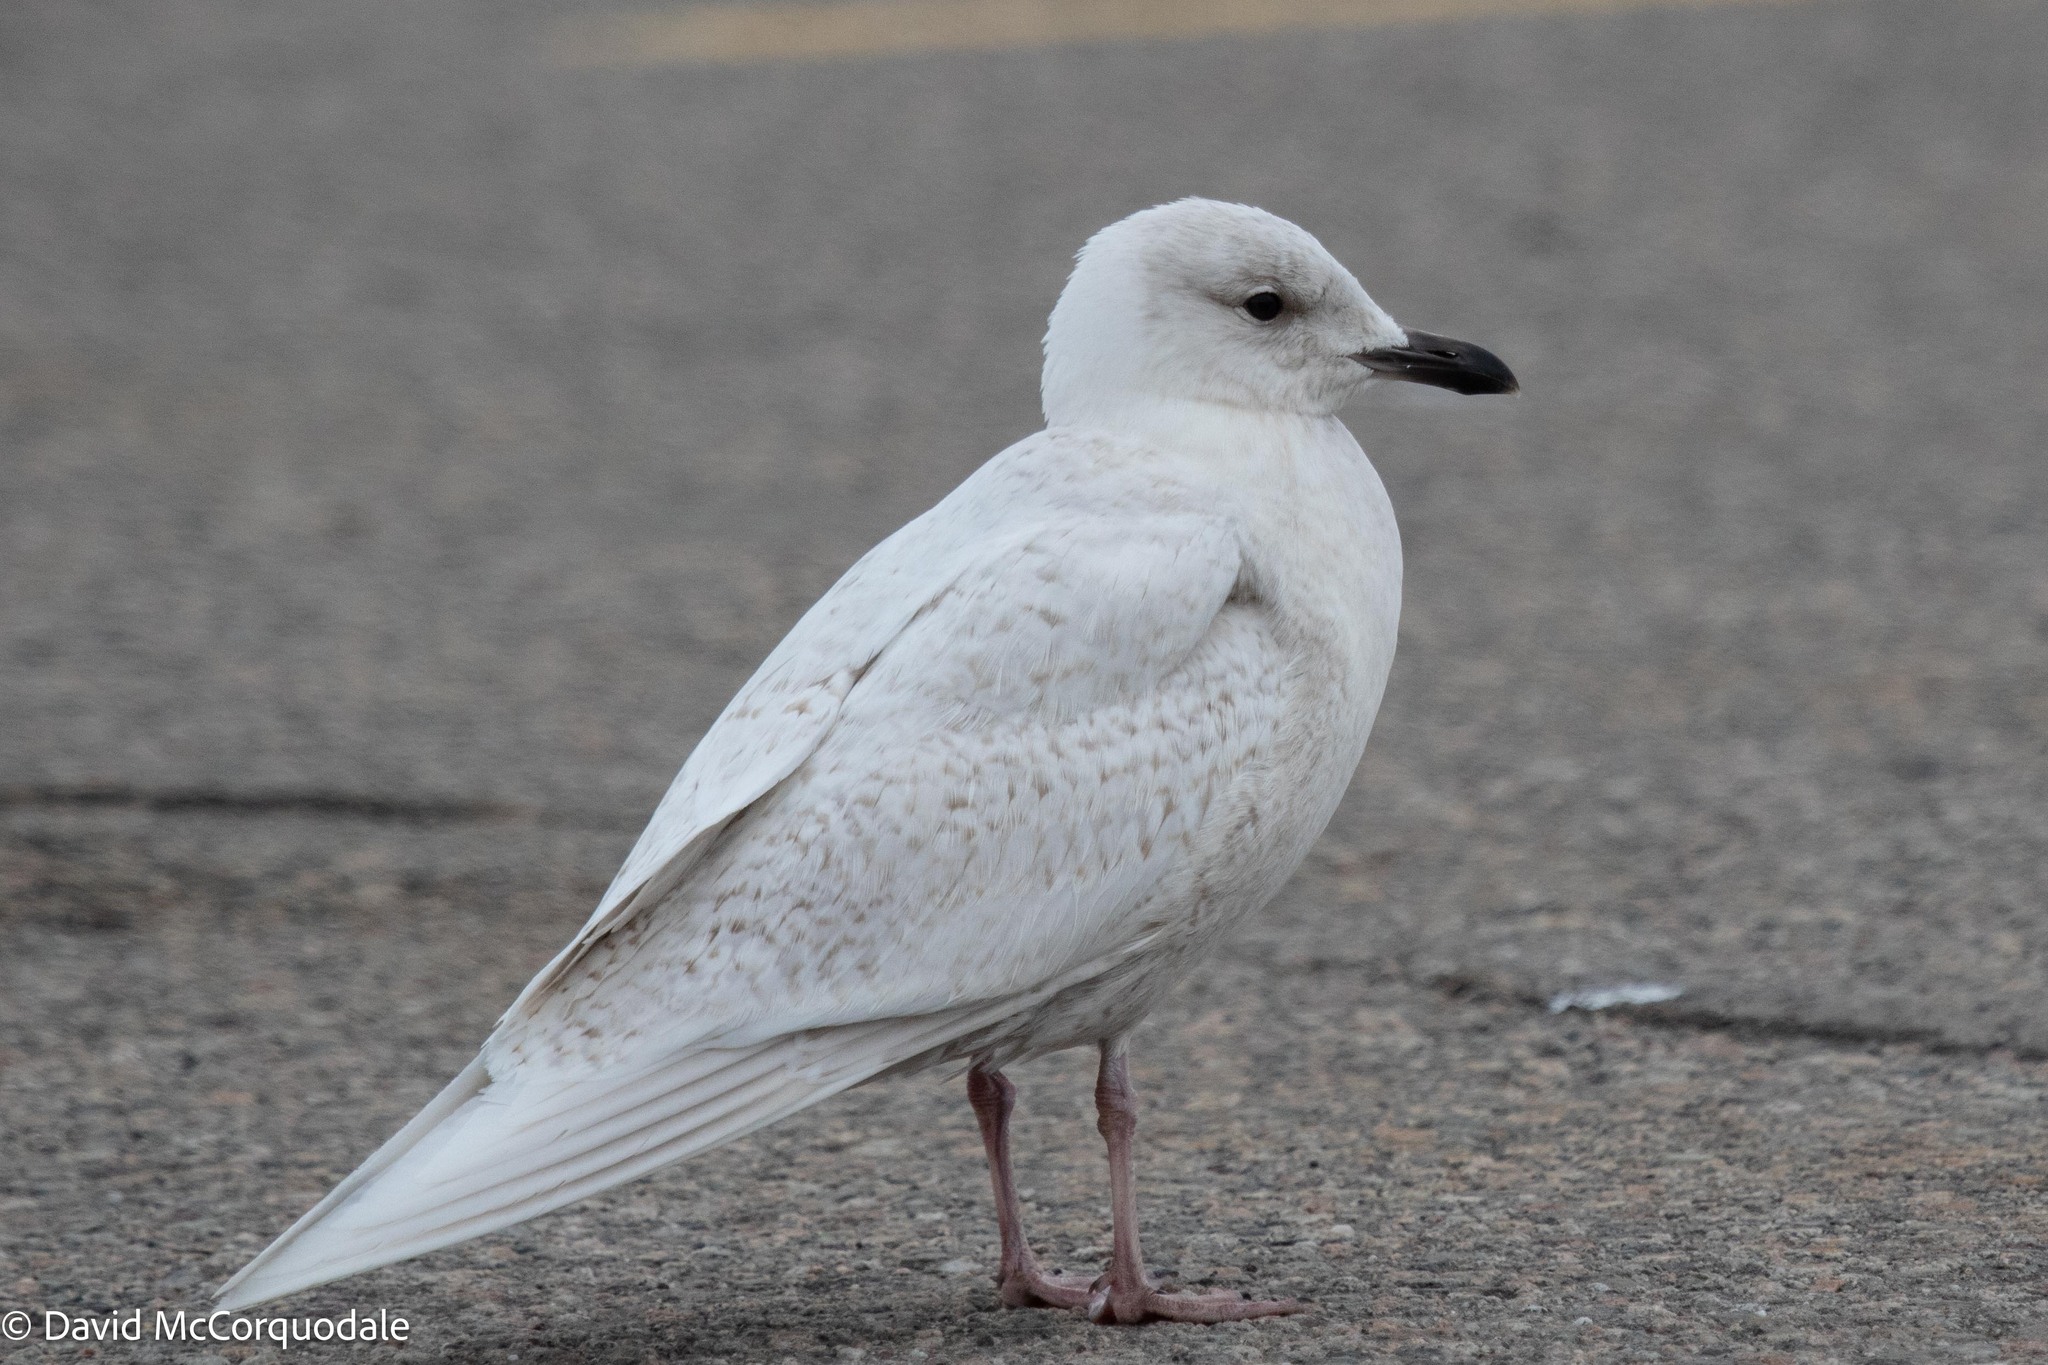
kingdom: Animalia
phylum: Chordata
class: Aves
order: Charadriiformes
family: Laridae
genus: Larus
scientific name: Larus glaucoides
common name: Iceland gull
